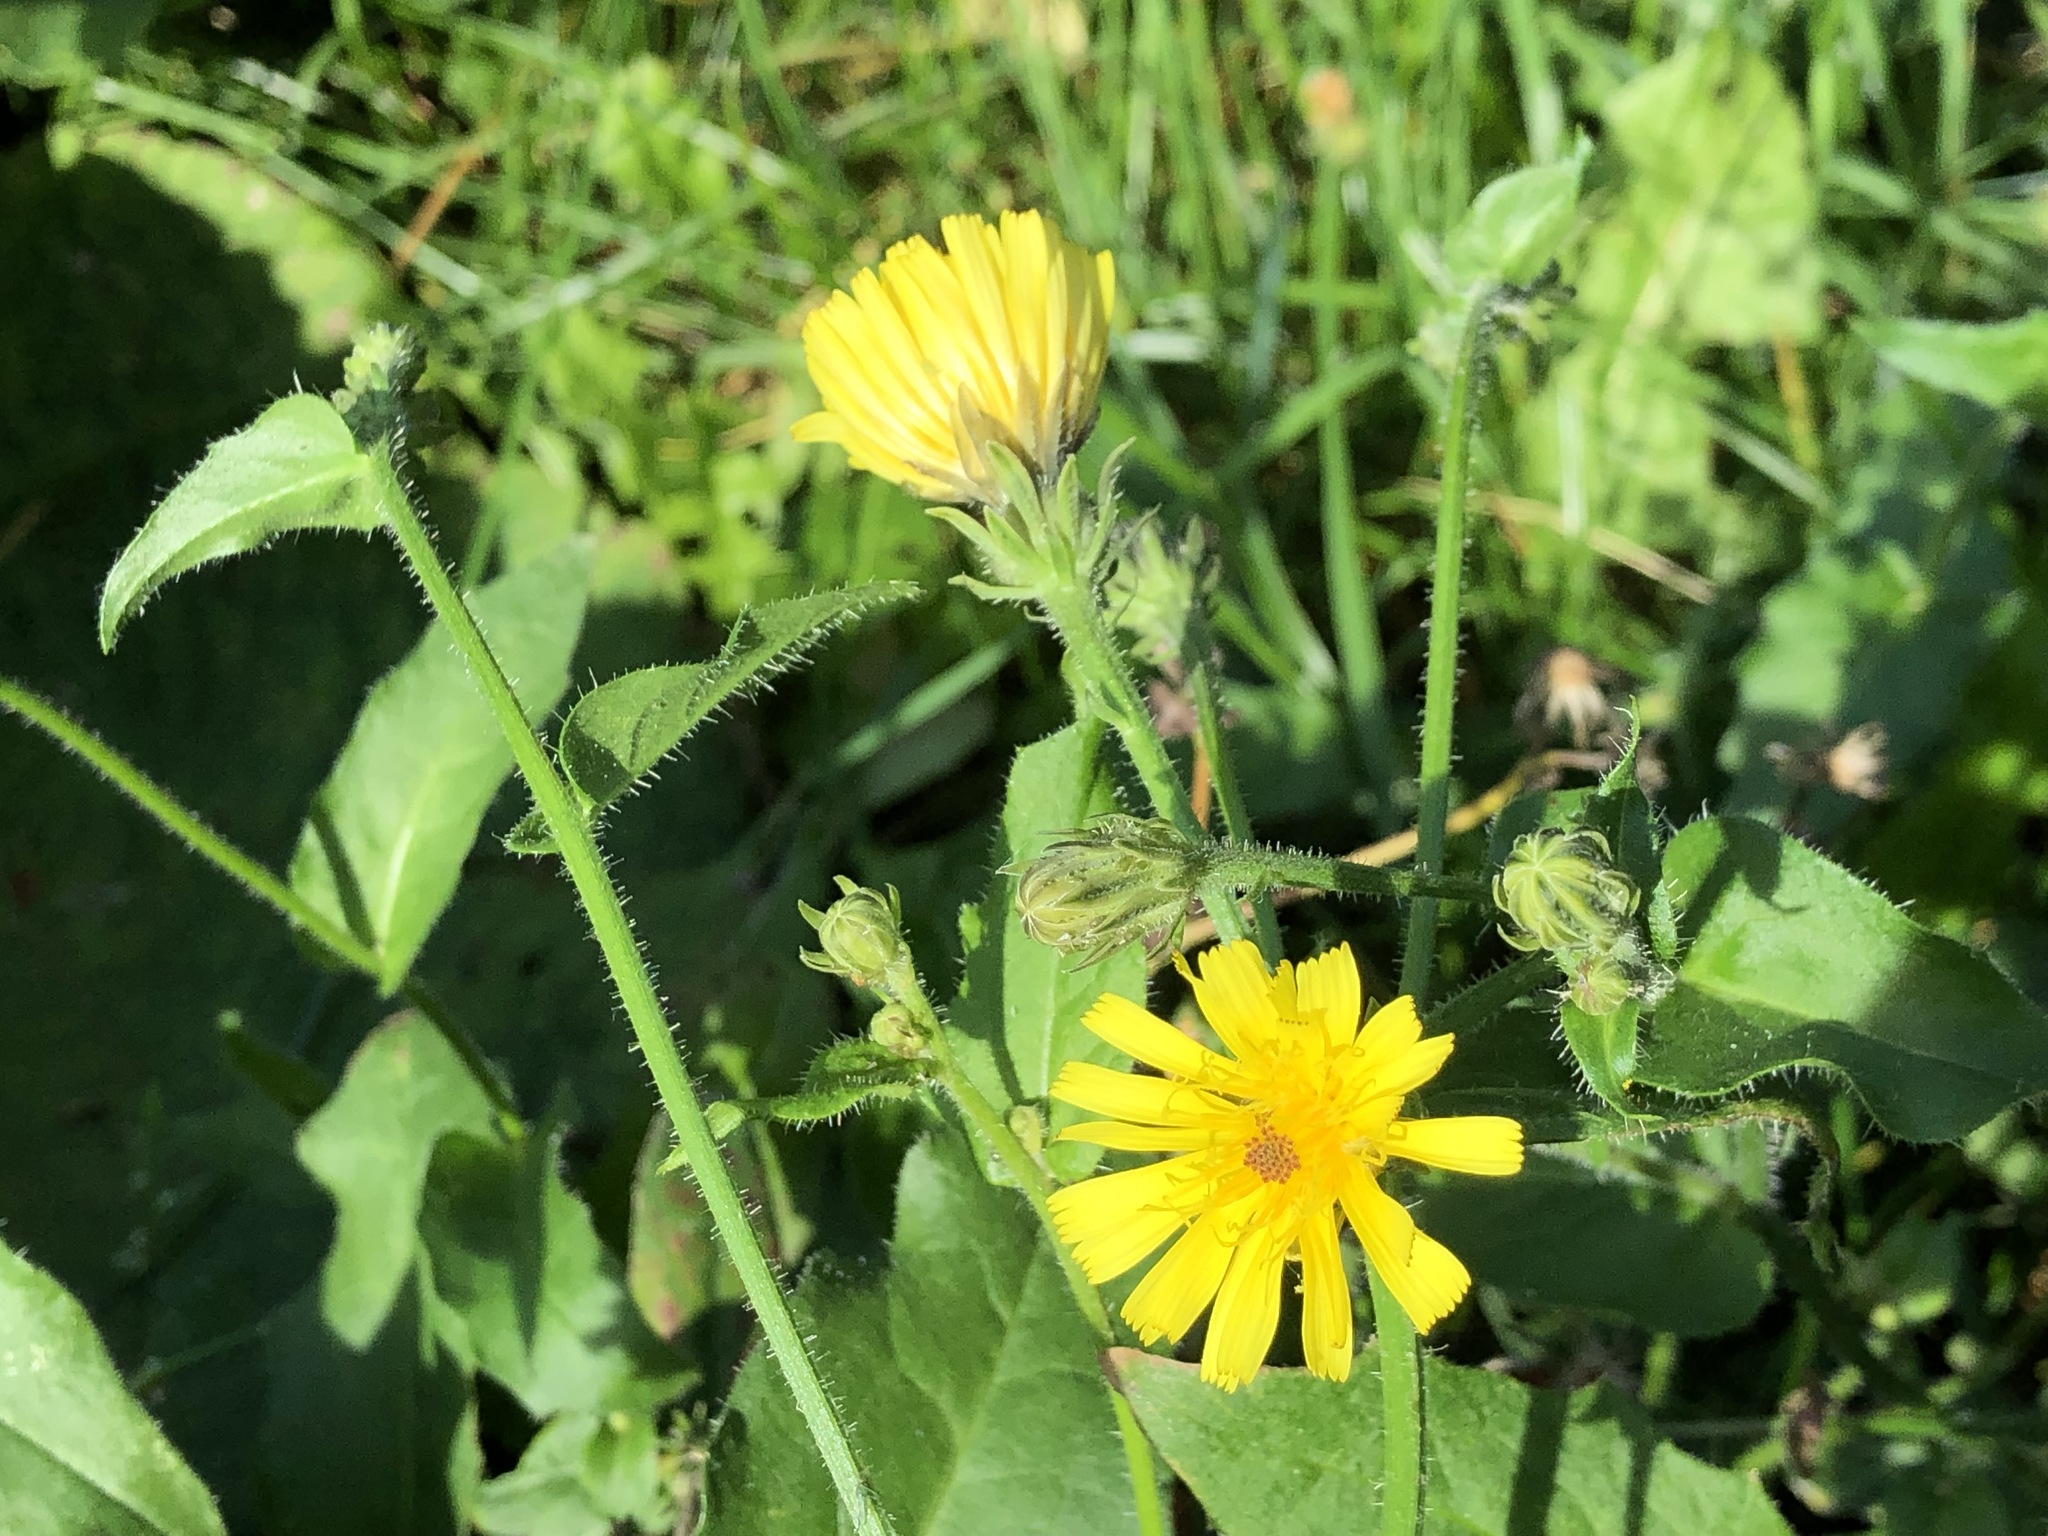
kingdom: Plantae
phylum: Tracheophyta
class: Magnoliopsida
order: Asterales
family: Asteraceae
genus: Picris
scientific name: Picris hieracioides
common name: Hawkweed oxtongue
